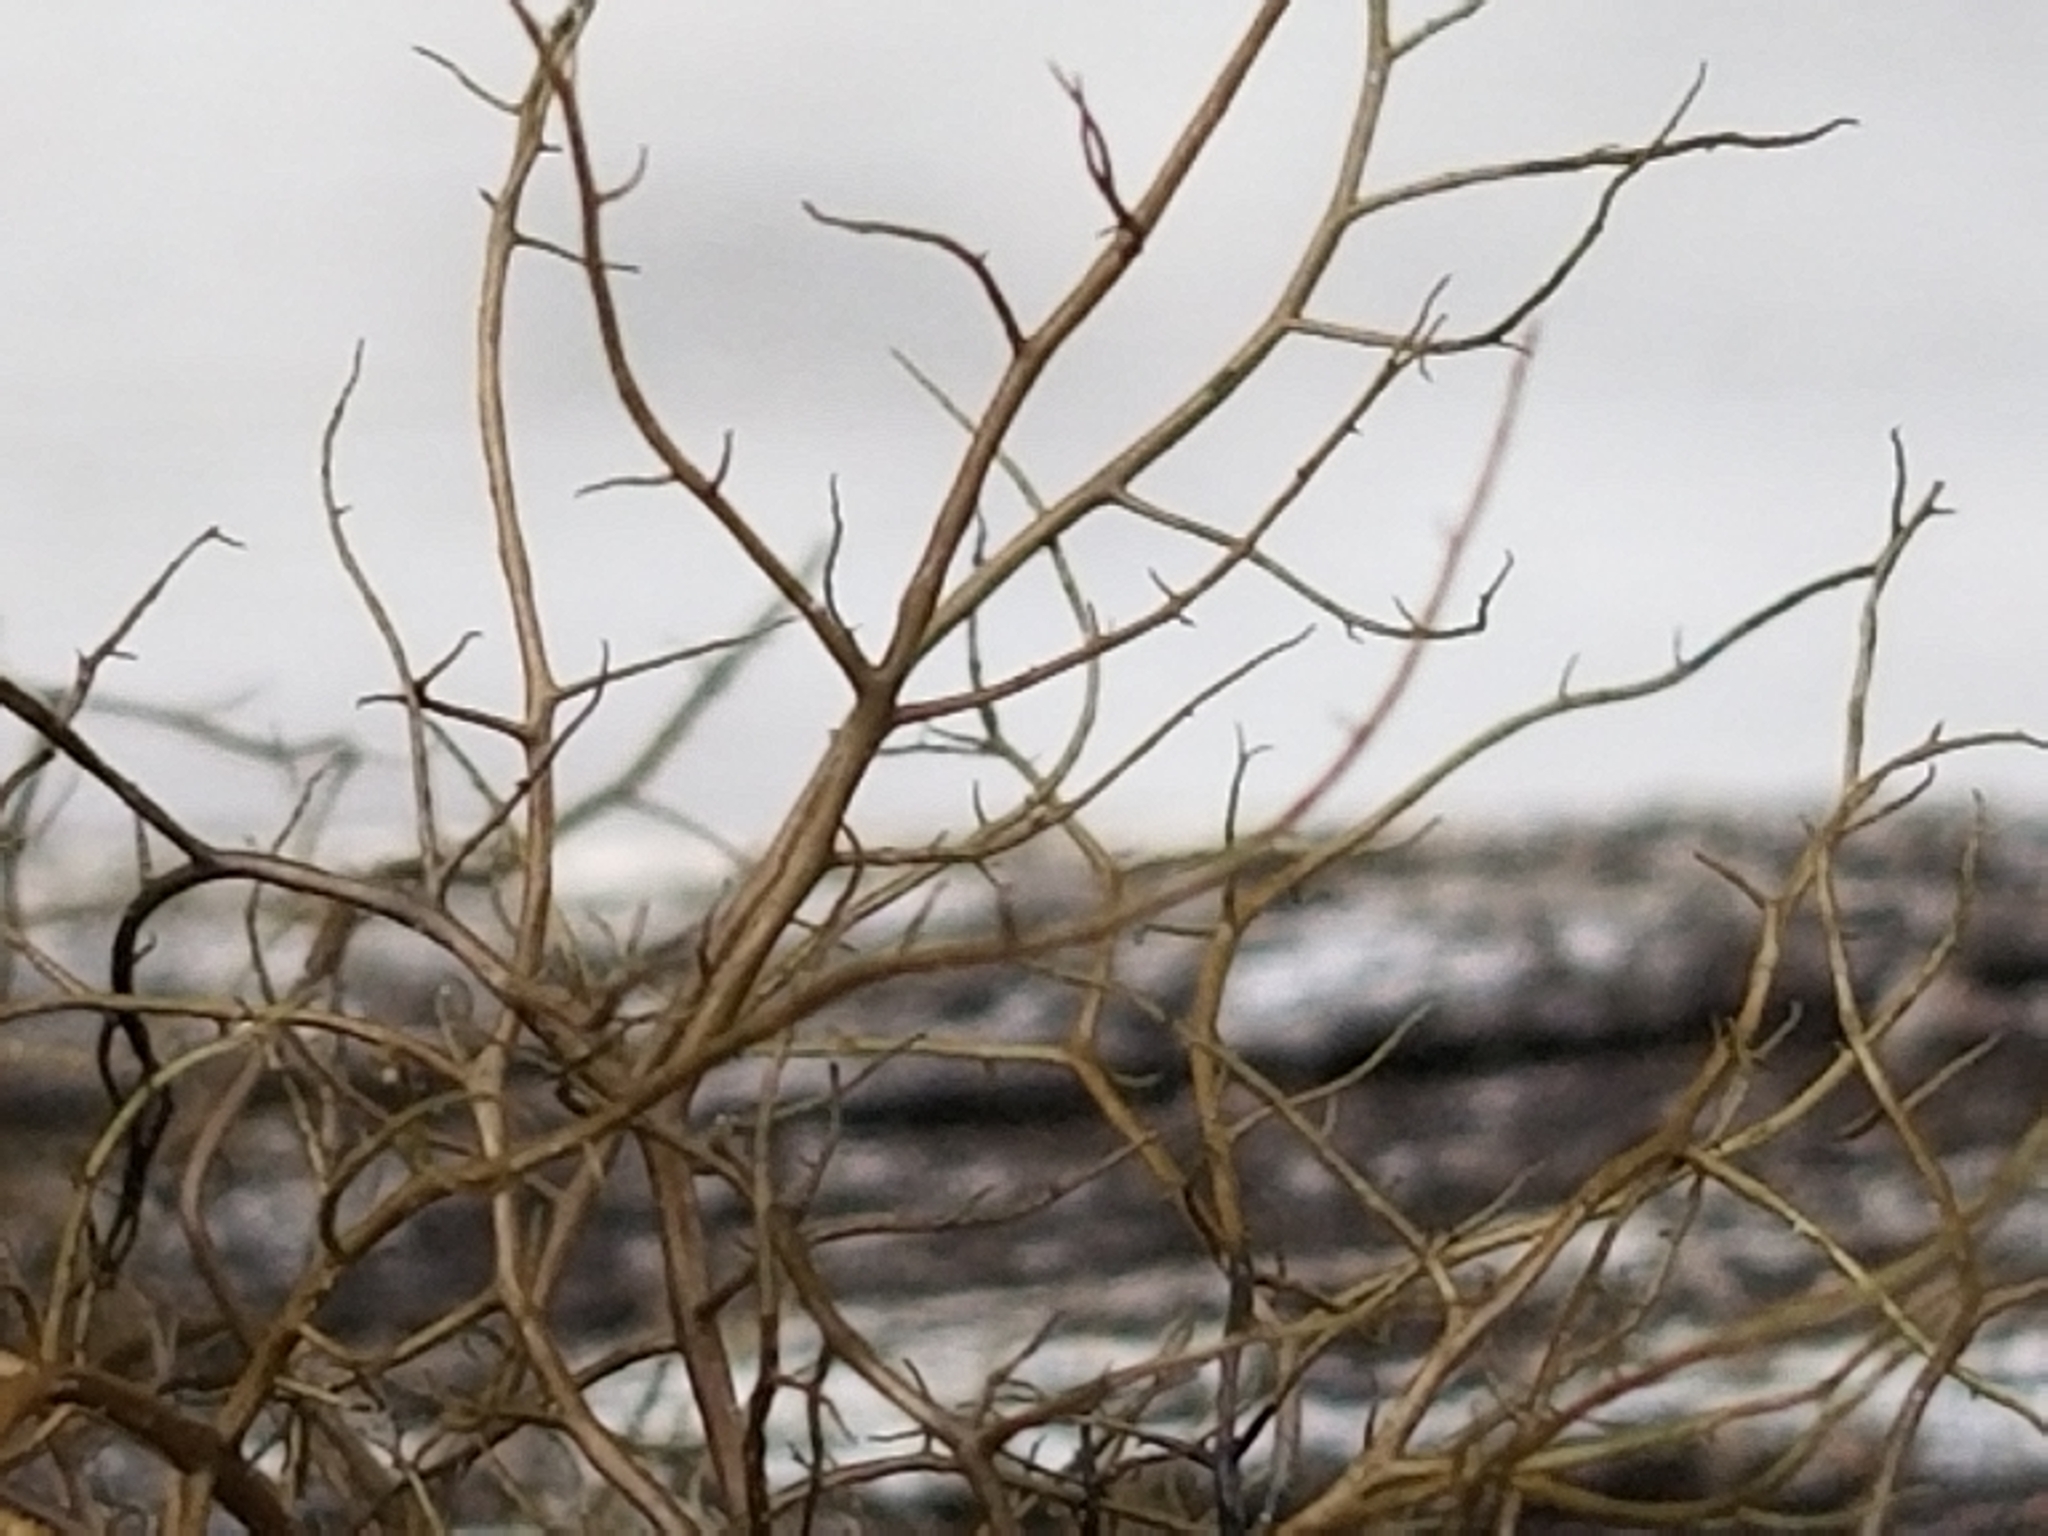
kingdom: Fungi
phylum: Ascomycota
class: Lecanoromycetes
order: Lecanorales
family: Parmeliaceae
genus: Bryoria
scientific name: Bryoria furcellata
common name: Forked hair-lichen
